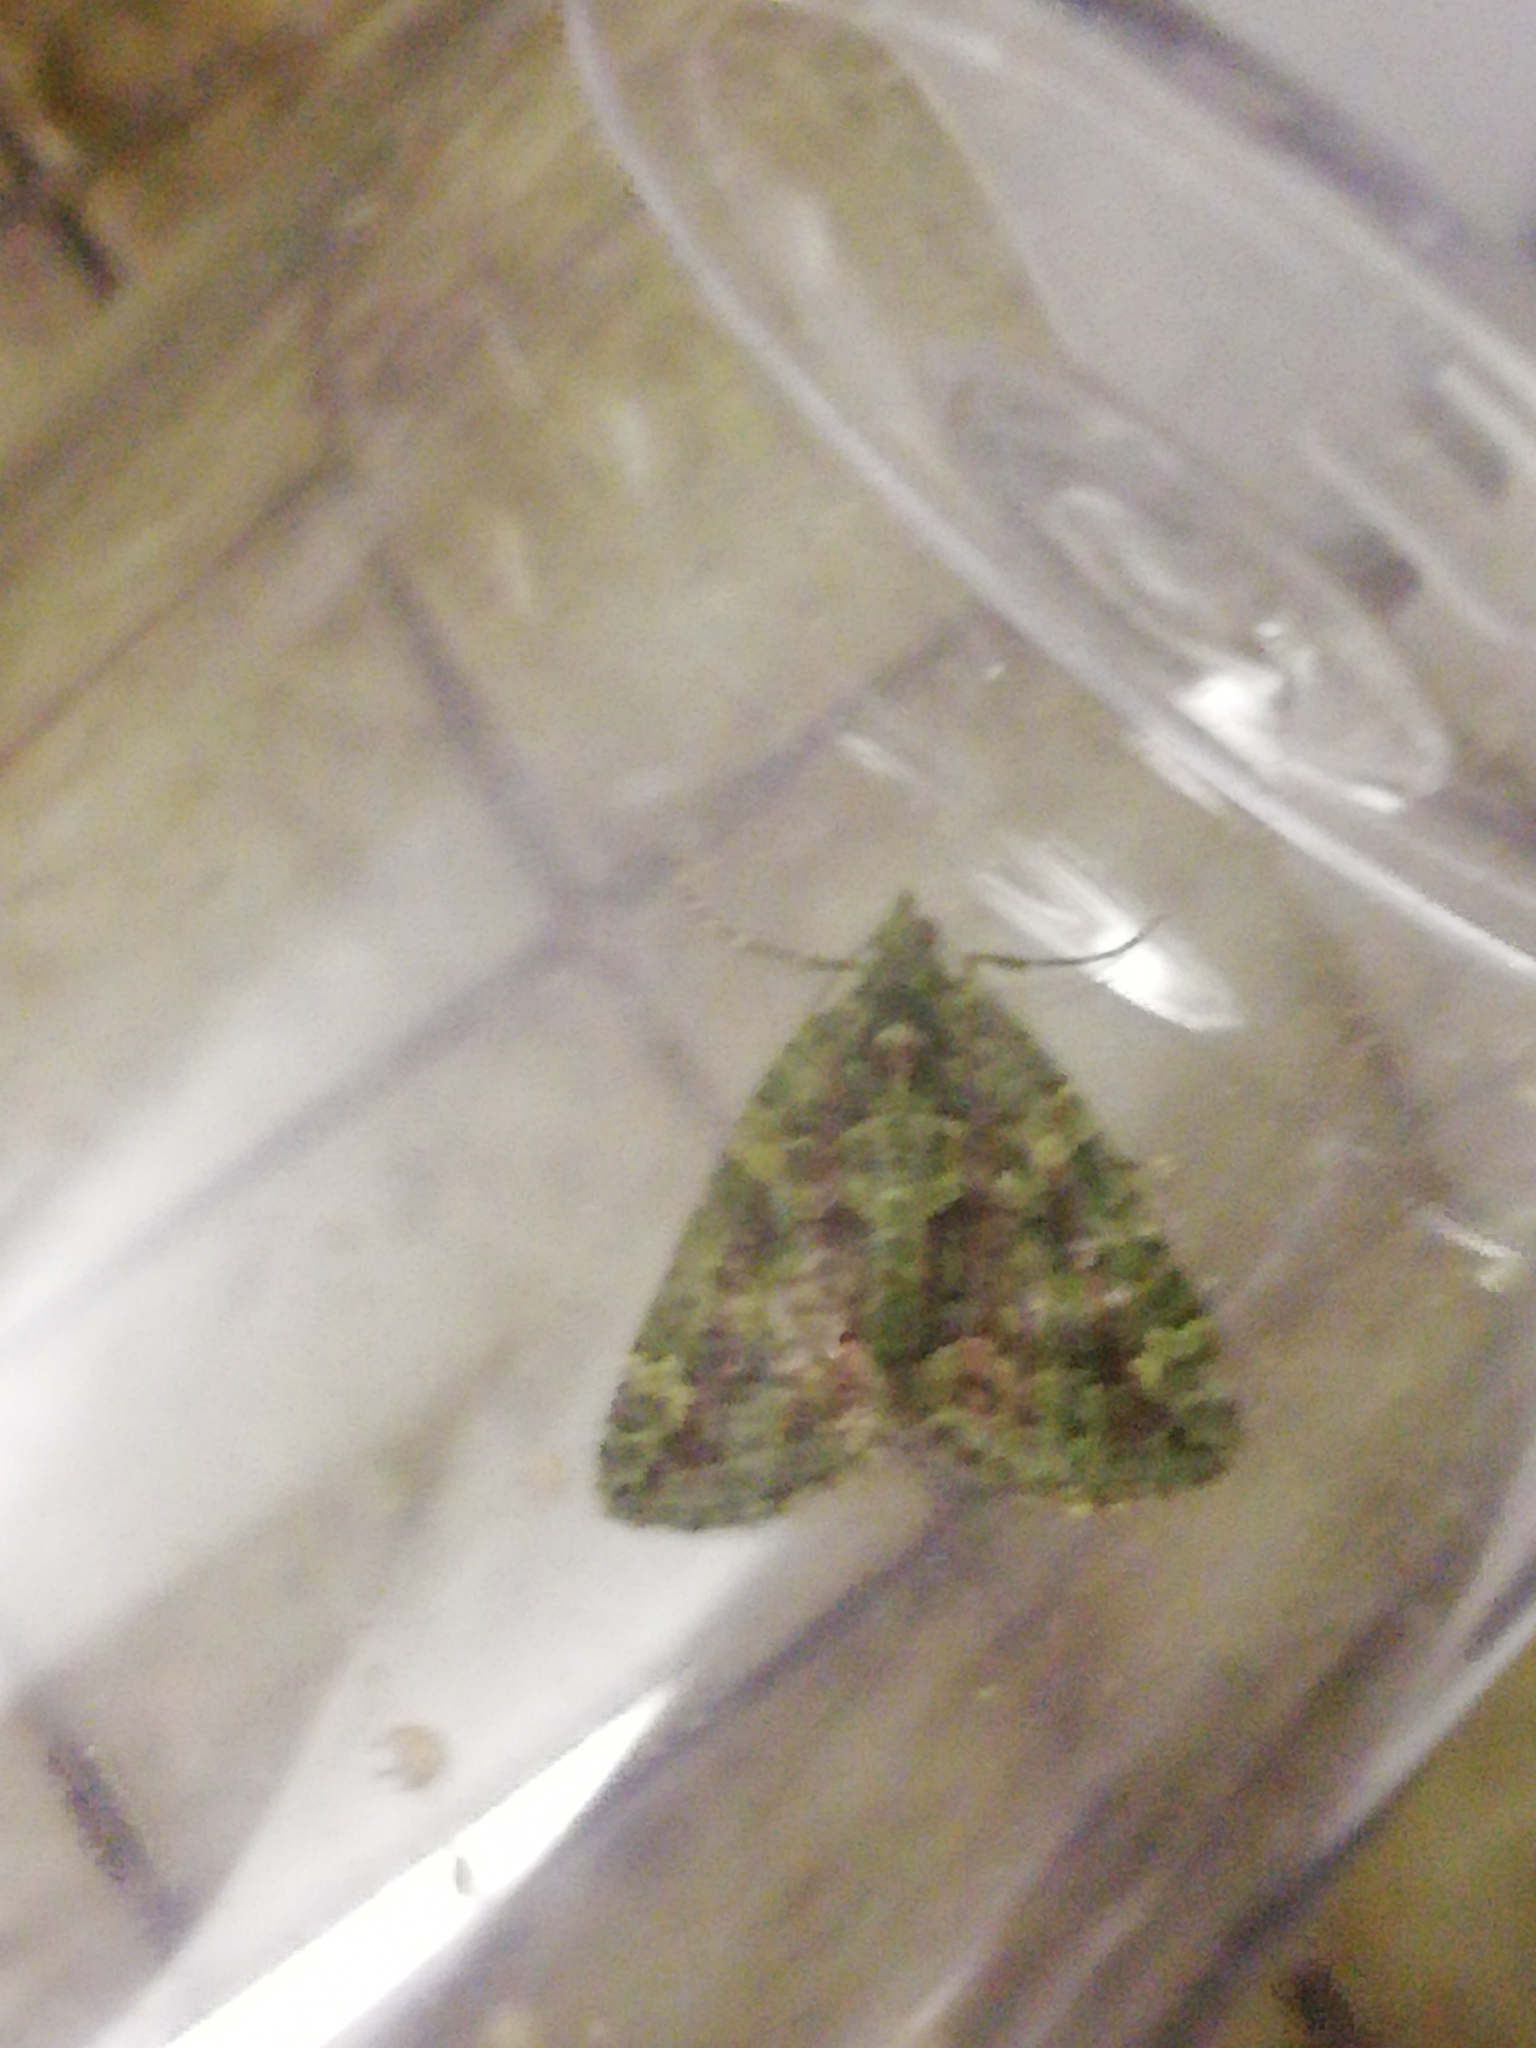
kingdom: Animalia
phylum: Arthropoda
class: Insecta
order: Lepidoptera
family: Geometridae
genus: Chloroclysta
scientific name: Chloroclysta siterata
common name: Red-green carpet
